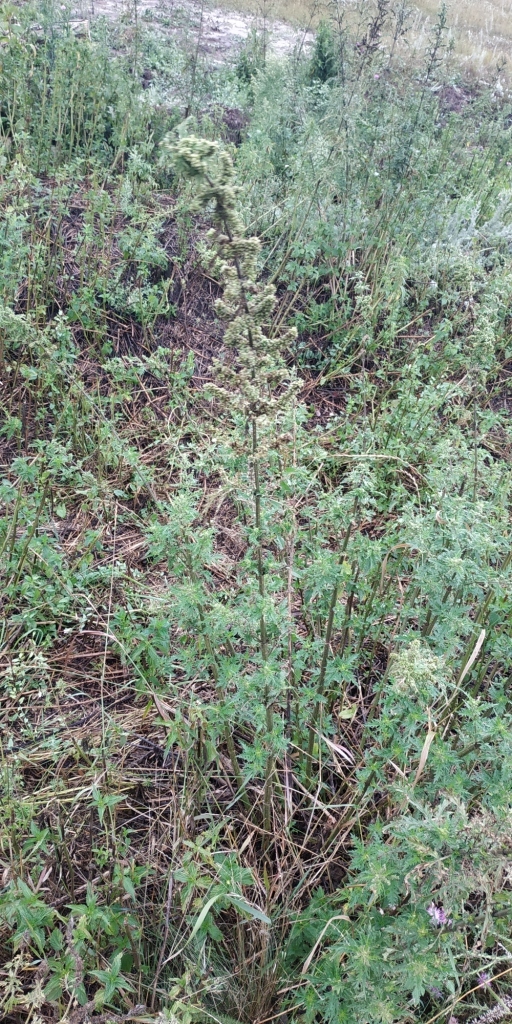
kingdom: Plantae
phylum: Tracheophyta
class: Magnoliopsida
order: Rosales
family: Urticaceae
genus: Urtica
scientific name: Urtica cannabina
